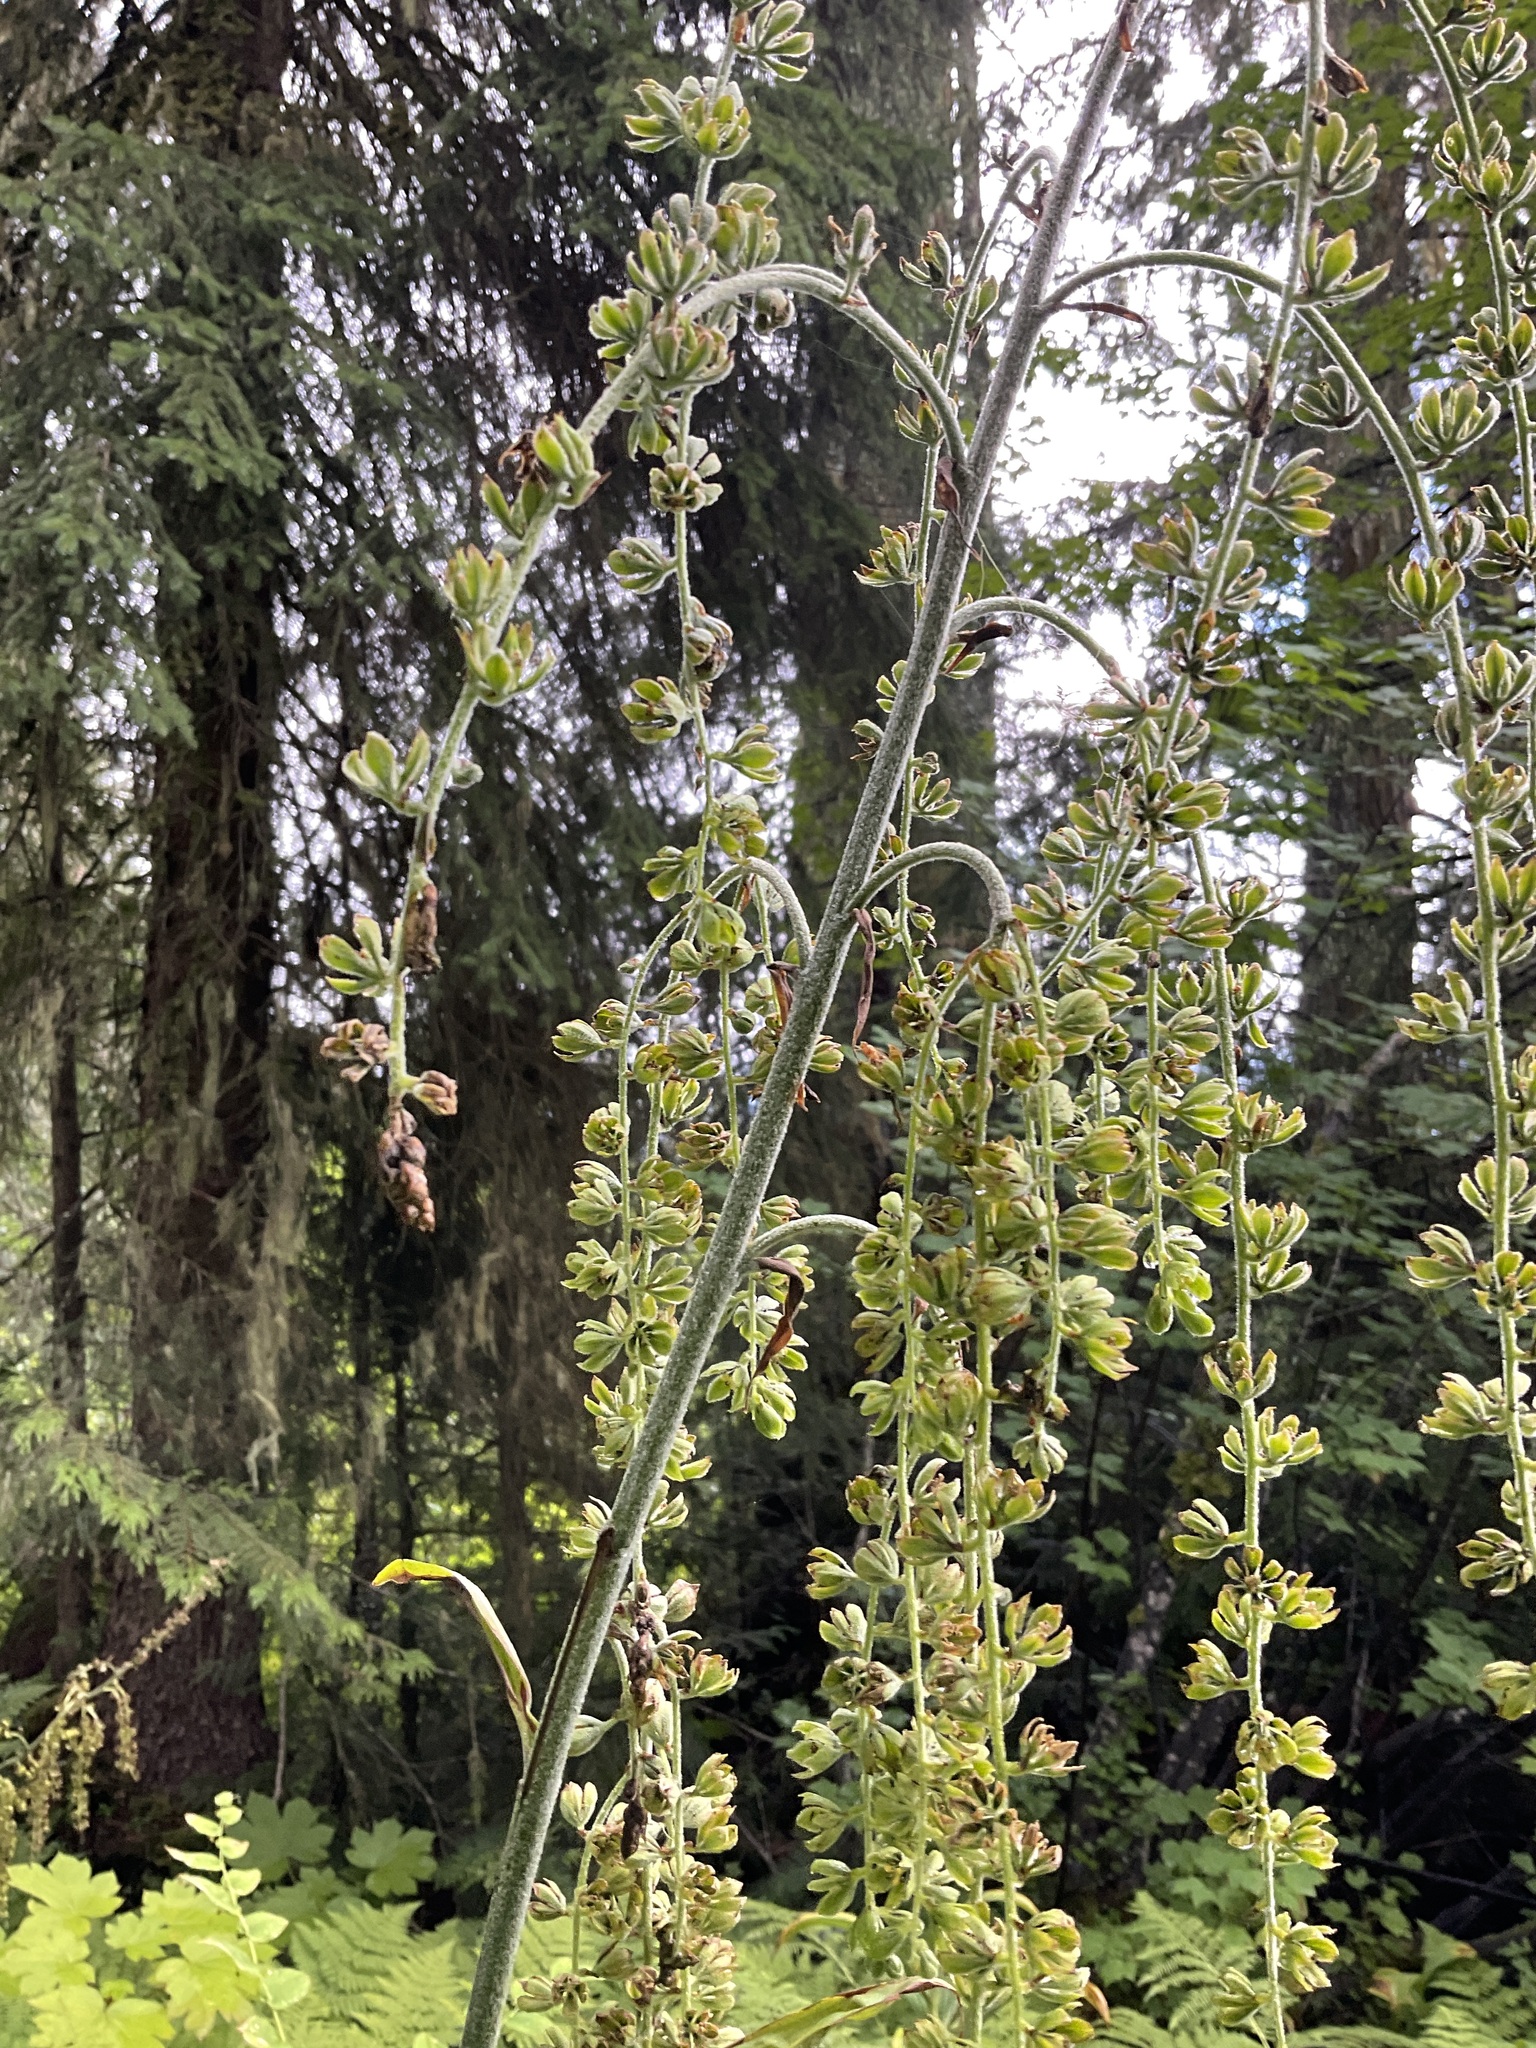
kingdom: Plantae
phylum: Tracheophyta
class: Liliopsida
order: Liliales
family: Melanthiaceae
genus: Veratrum
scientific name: Veratrum viride
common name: American false hellebore
